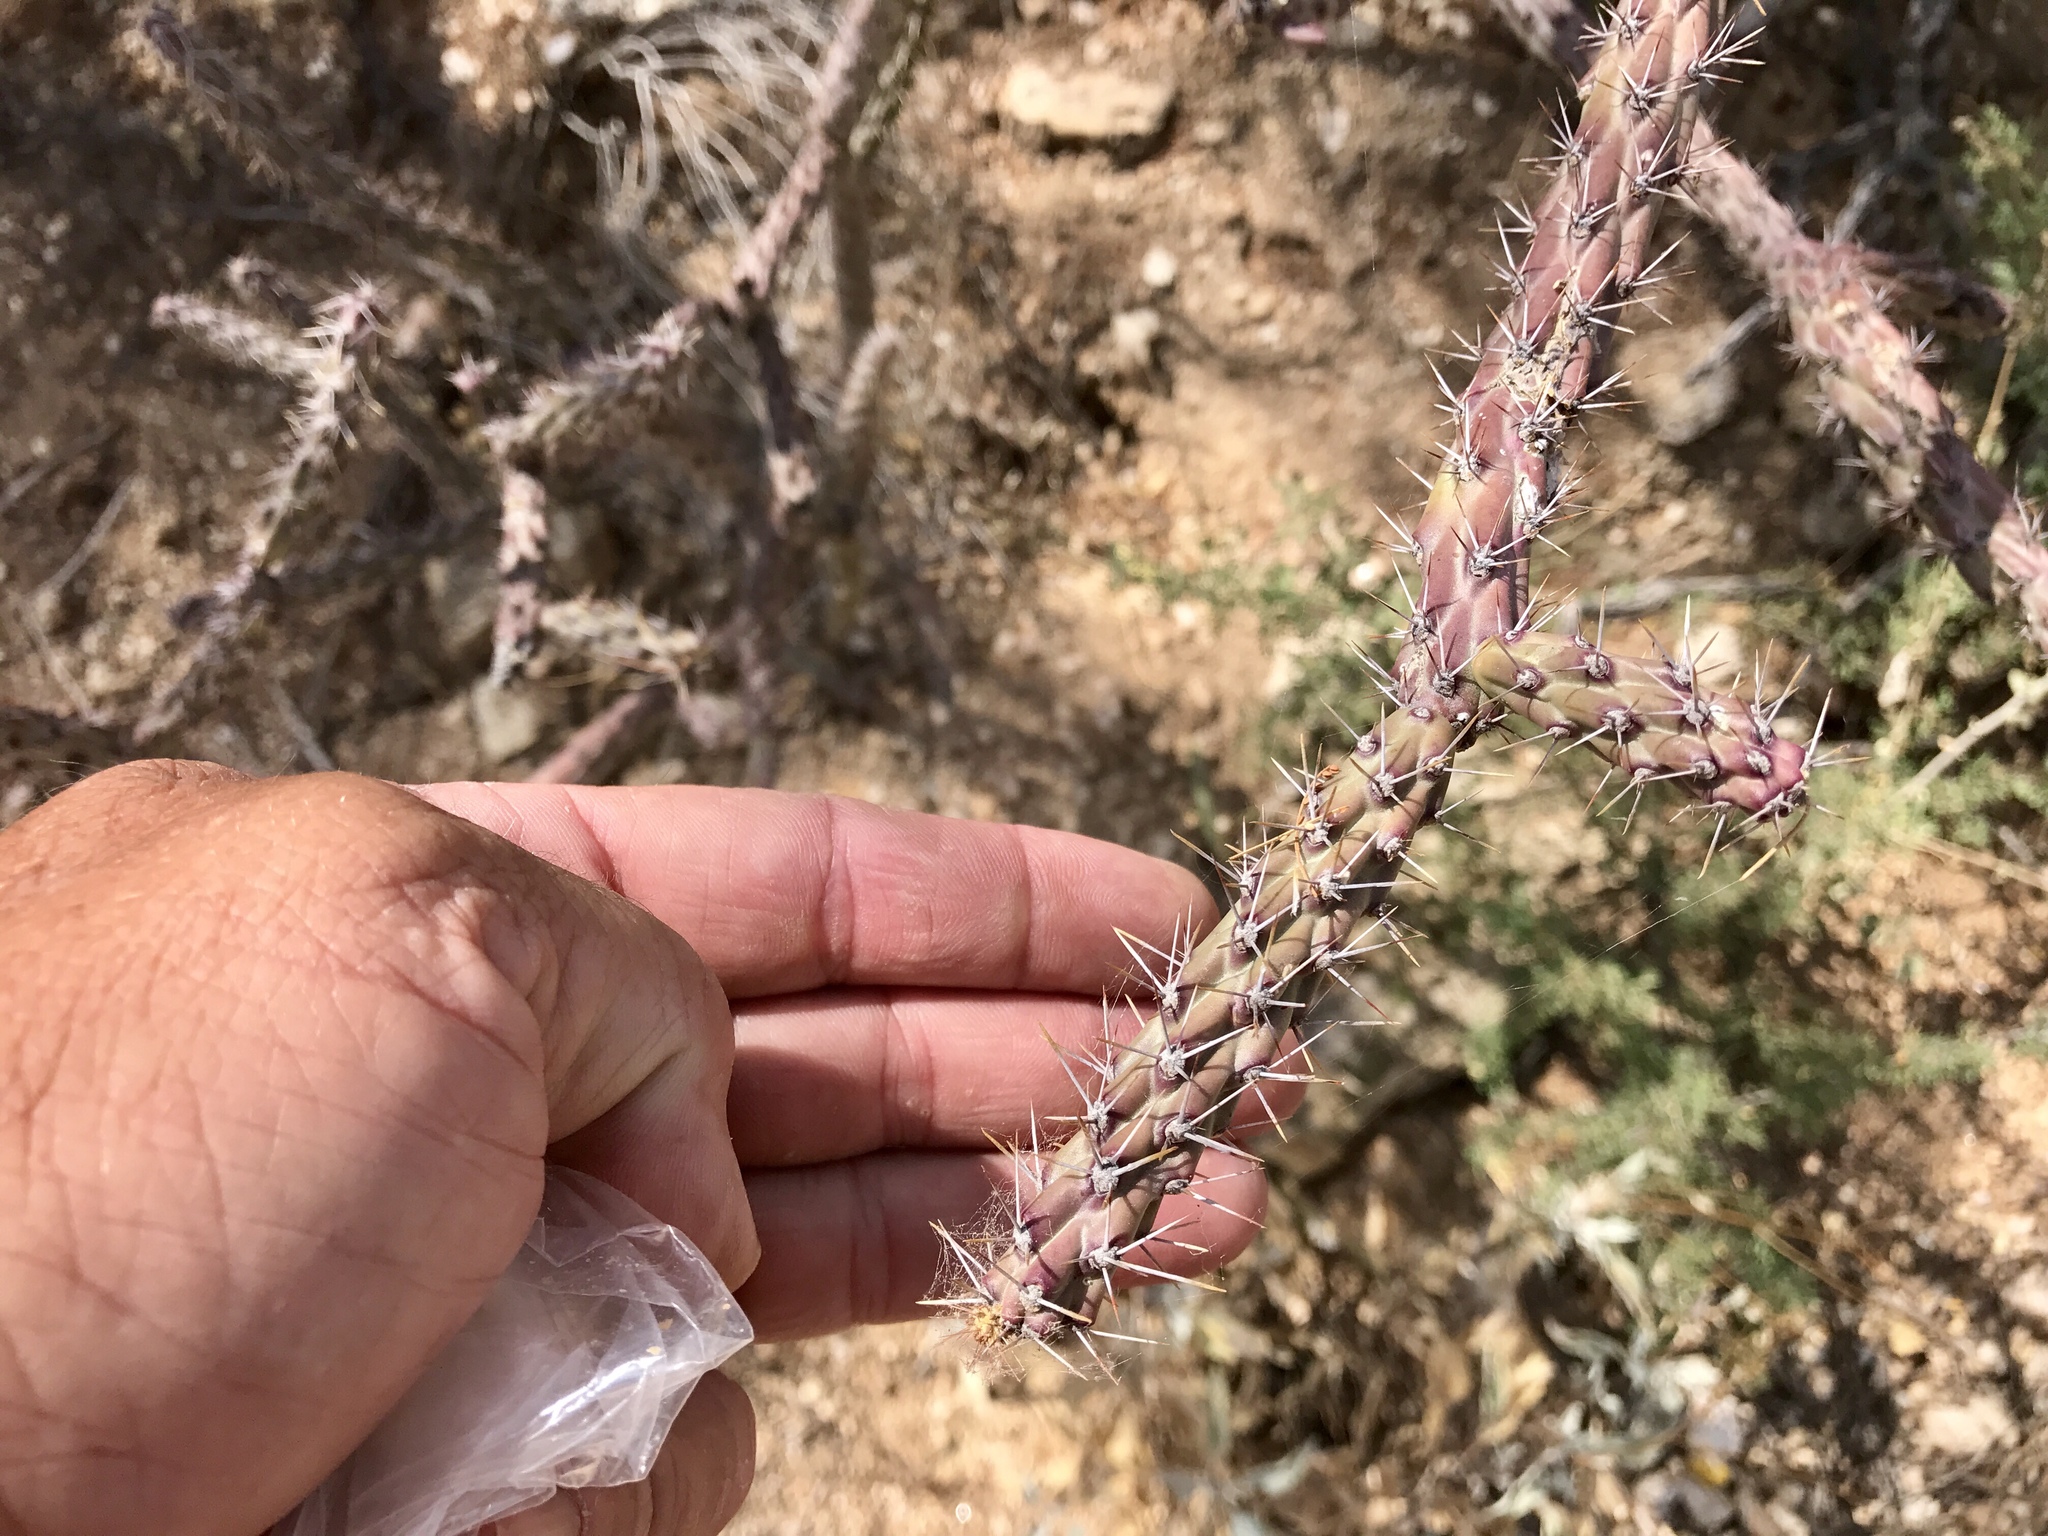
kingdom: Plantae
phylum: Tracheophyta
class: Magnoliopsida
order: Caryophyllales
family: Cactaceae
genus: Cylindropuntia
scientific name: Cylindropuntia thurberi
